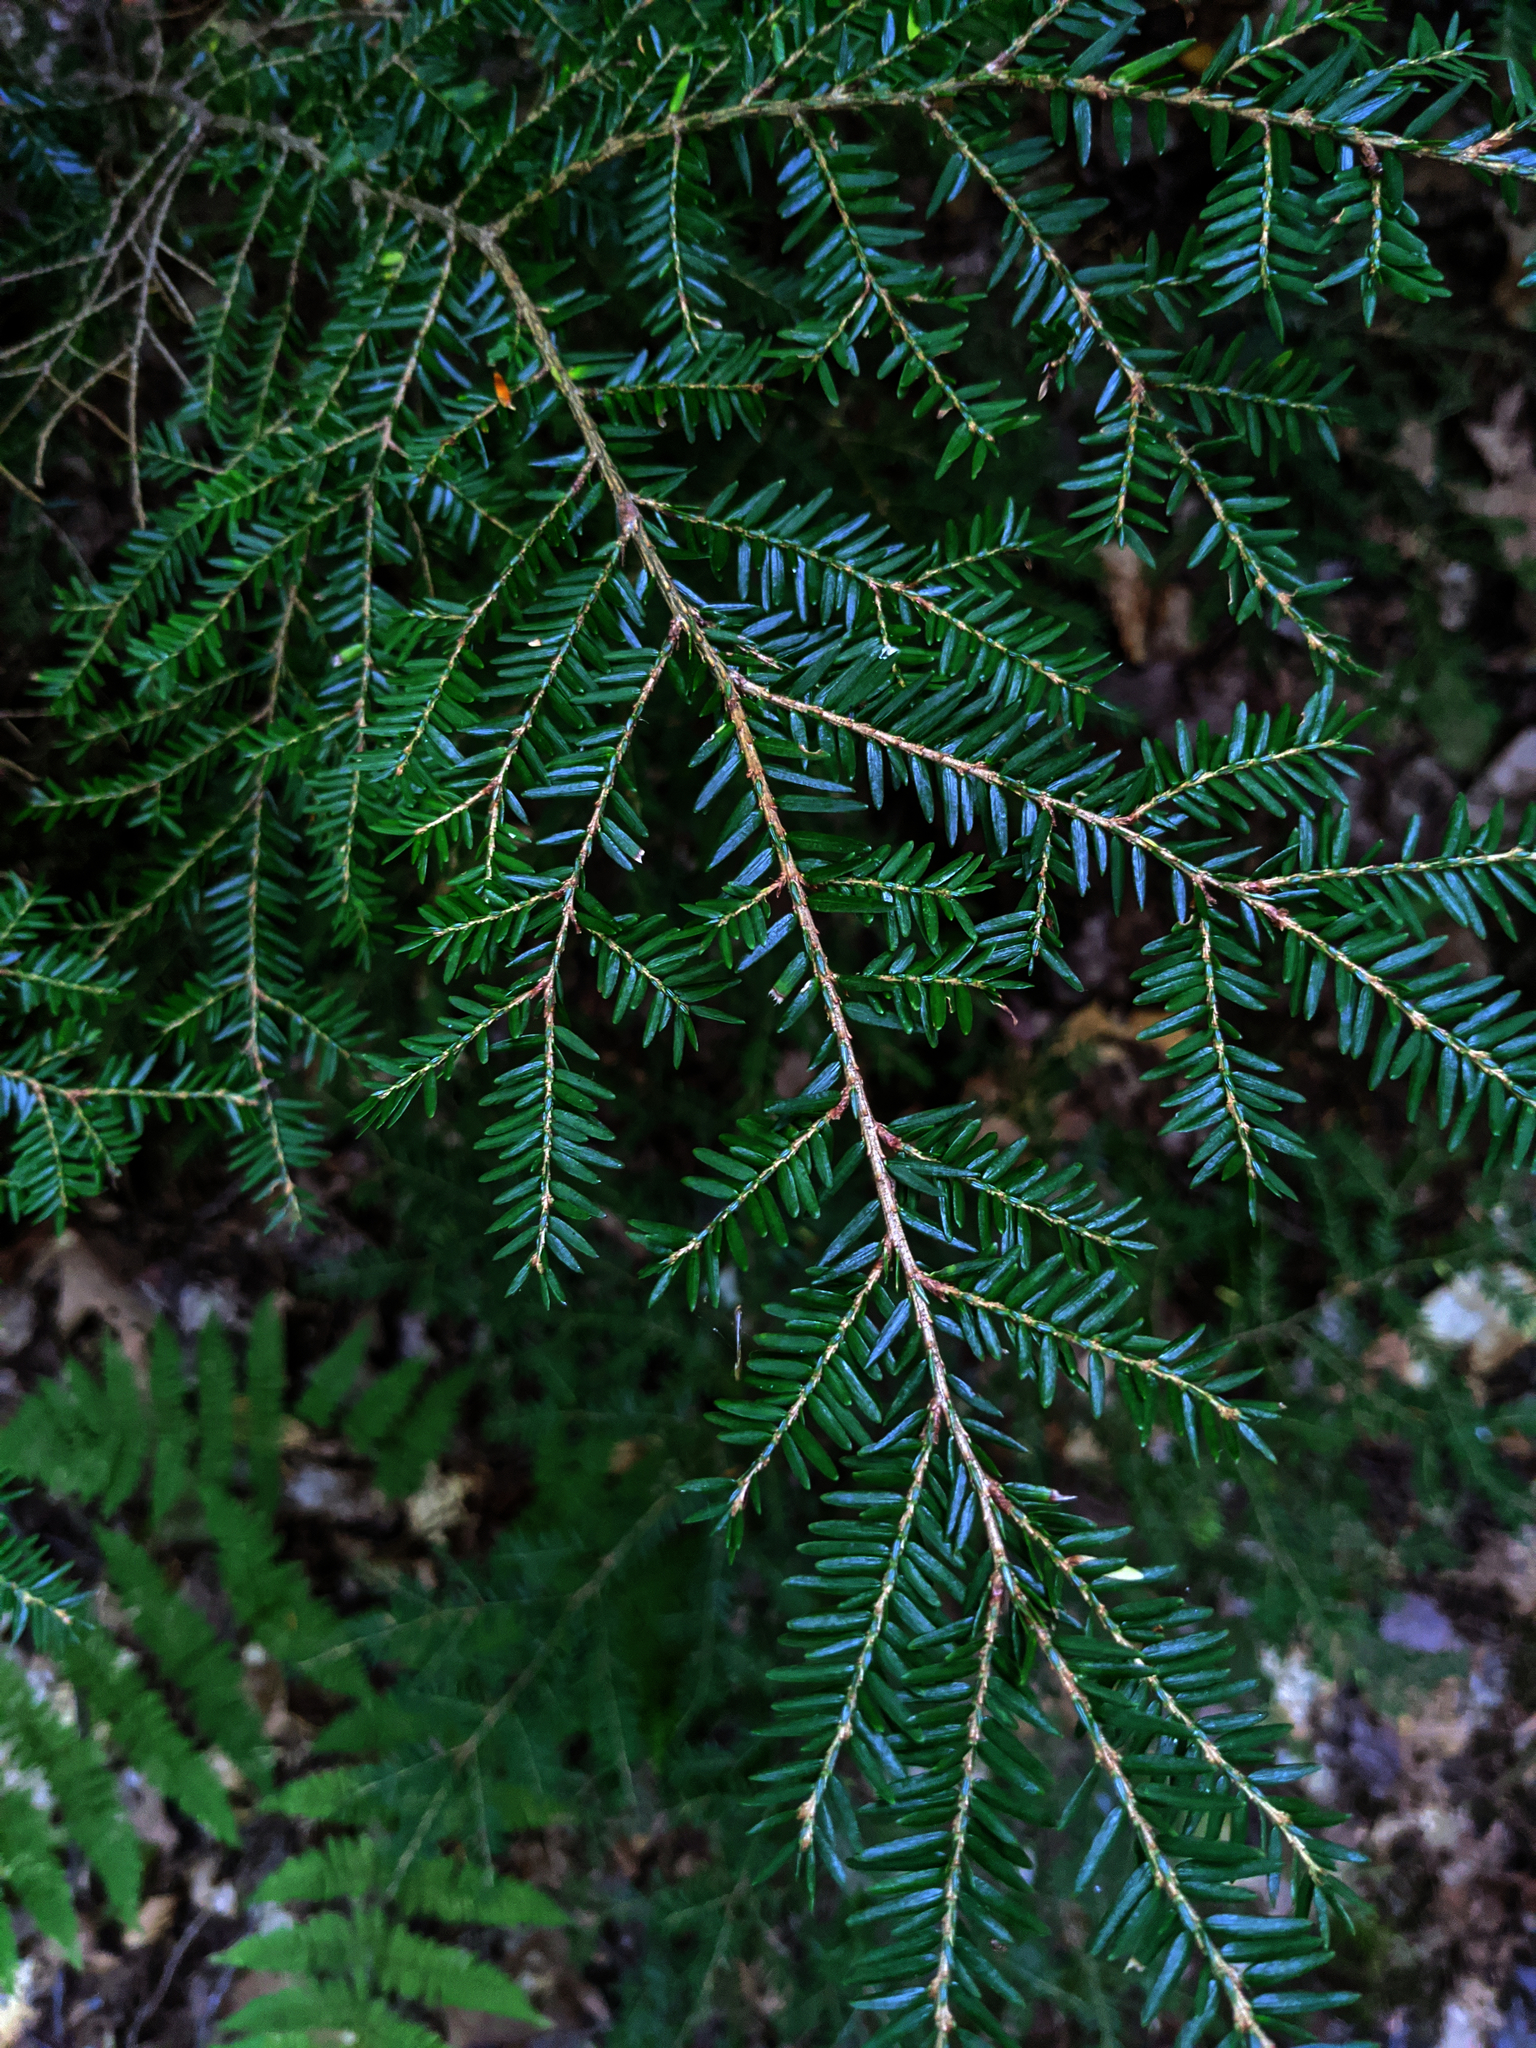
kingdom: Plantae
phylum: Tracheophyta
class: Pinopsida
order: Pinales
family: Pinaceae
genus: Tsuga
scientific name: Tsuga canadensis
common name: Eastern hemlock
